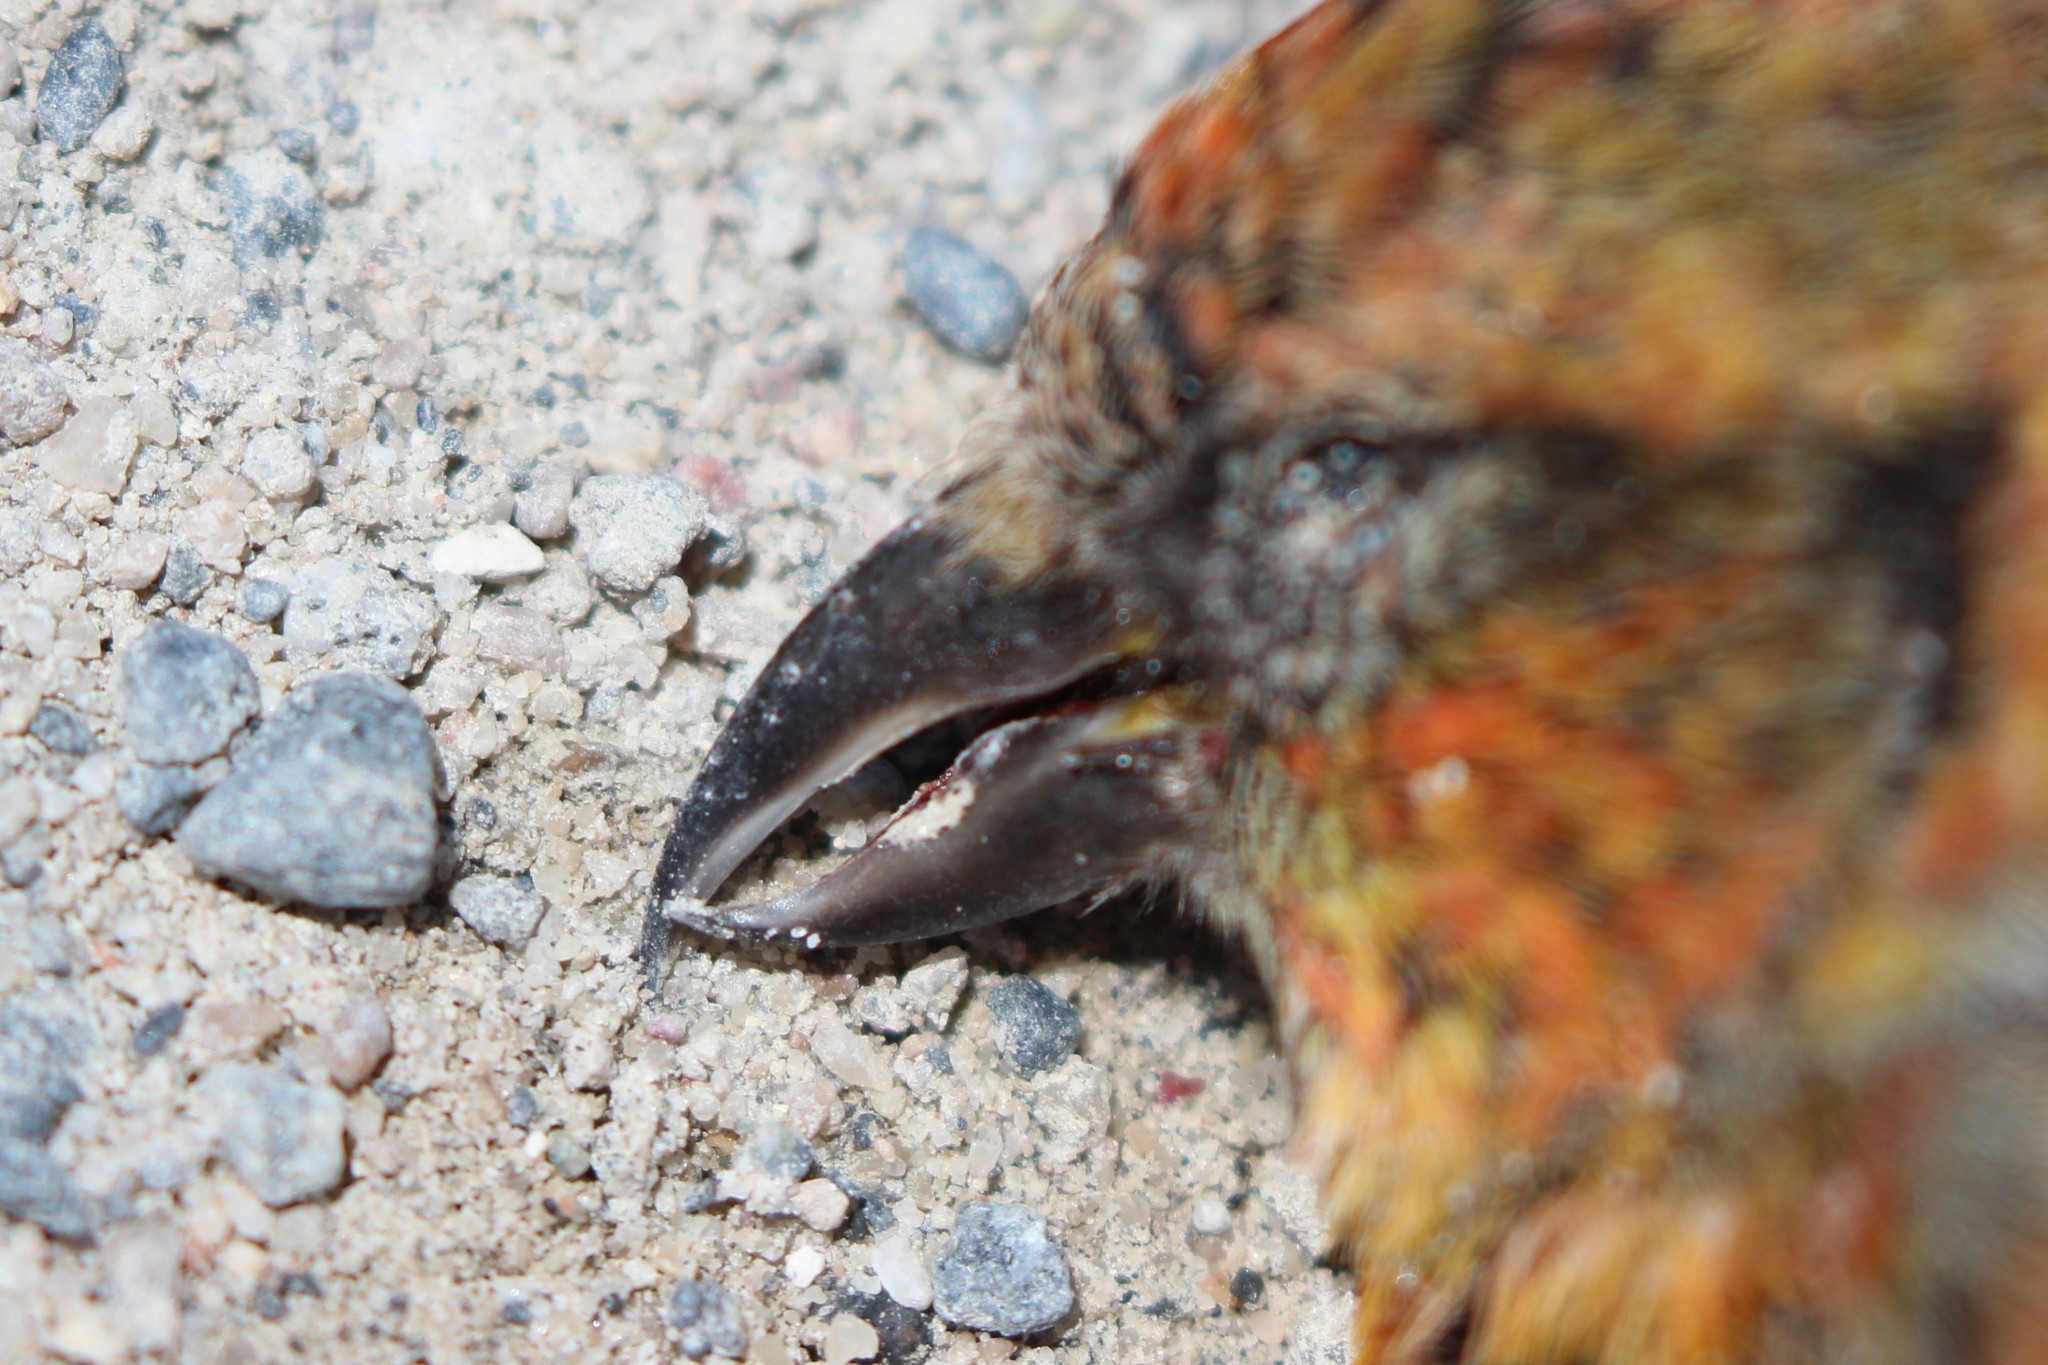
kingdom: Animalia
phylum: Chordata
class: Aves
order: Passeriformes
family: Fringillidae
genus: Loxia
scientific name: Loxia leucoptera
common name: Two-barred crossbill
